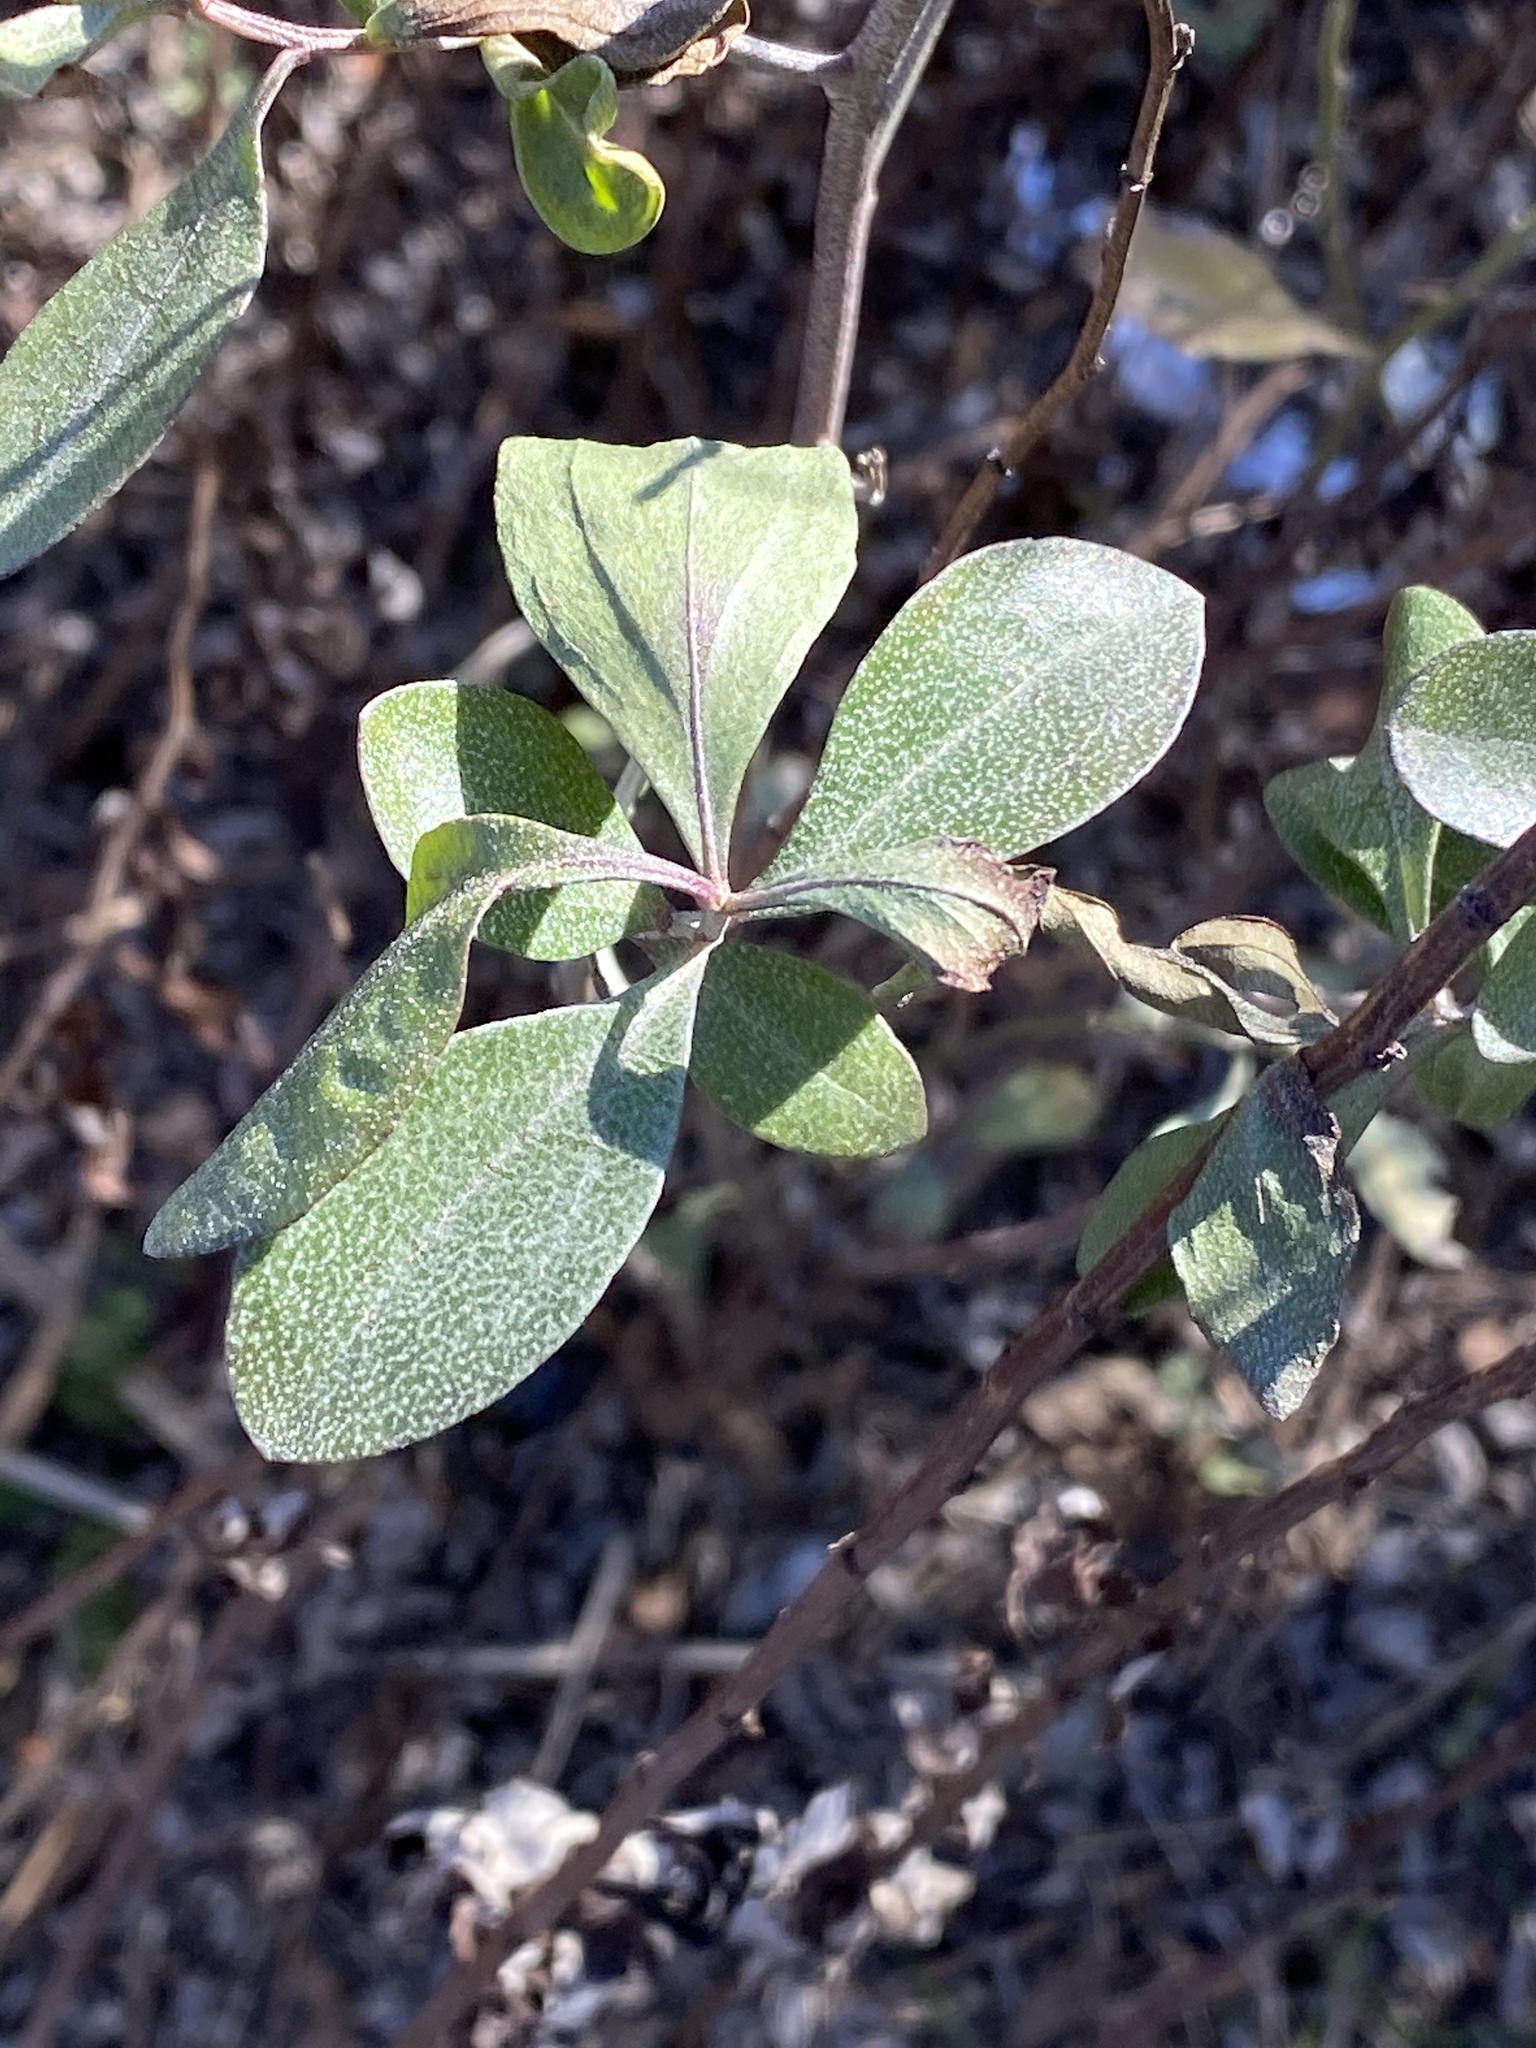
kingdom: Plantae
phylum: Tracheophyta
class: Magnoliopsida
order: Asterales
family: Asteraceae
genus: Baccharis
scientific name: Baccharis halimifolia
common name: Eastern baccharis
